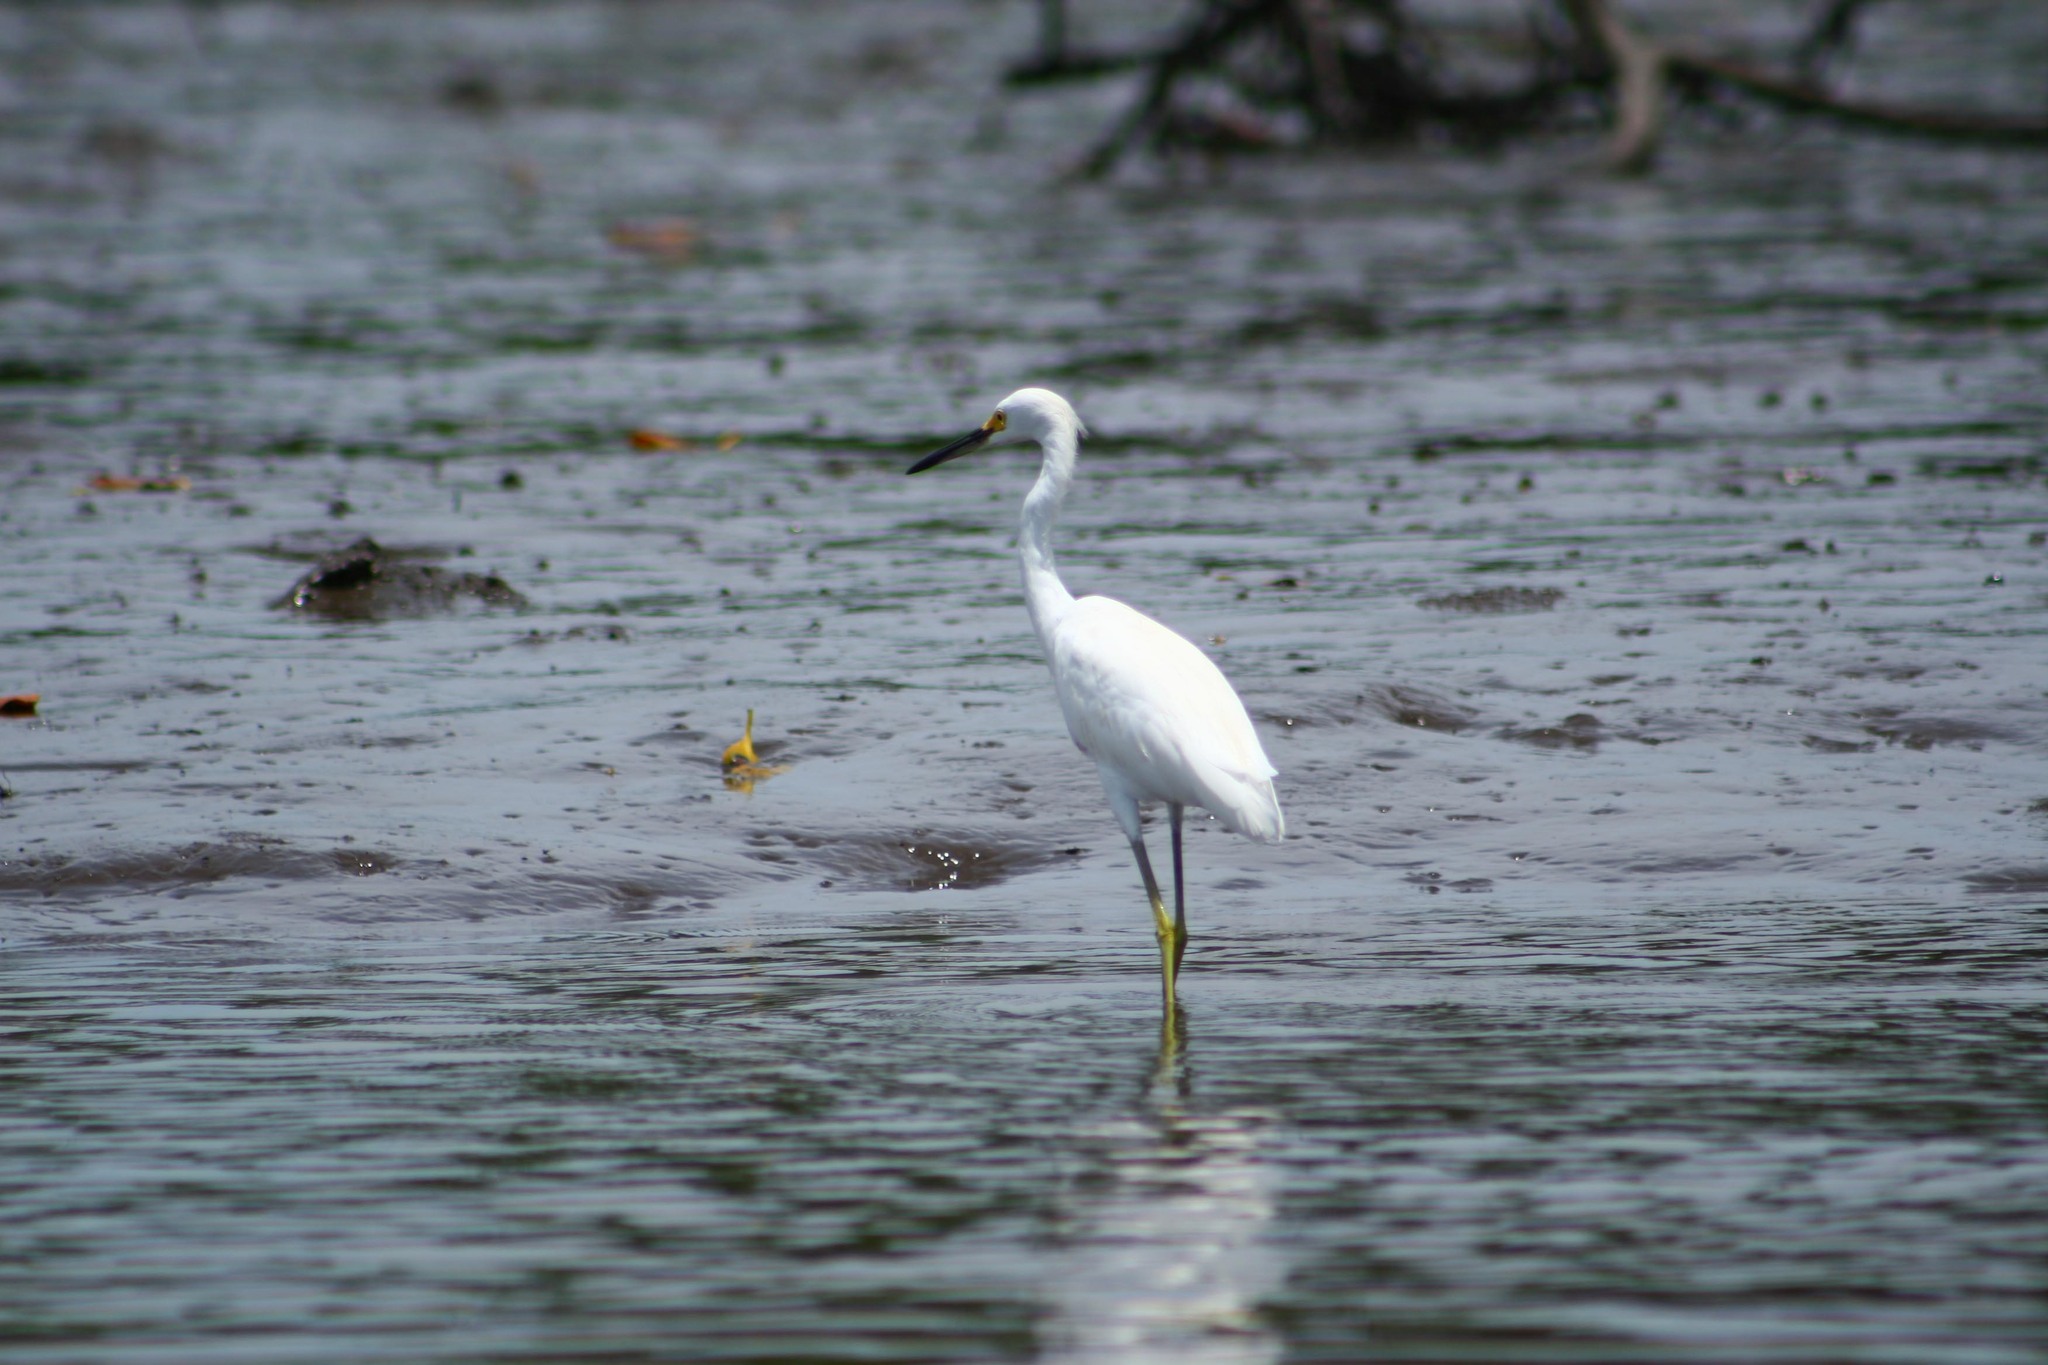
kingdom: Animalia
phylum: Chordata
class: Aves
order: Pelecaniformes
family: Ardeidae
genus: Egretta
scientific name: Egretta thula
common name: Snowy egret
